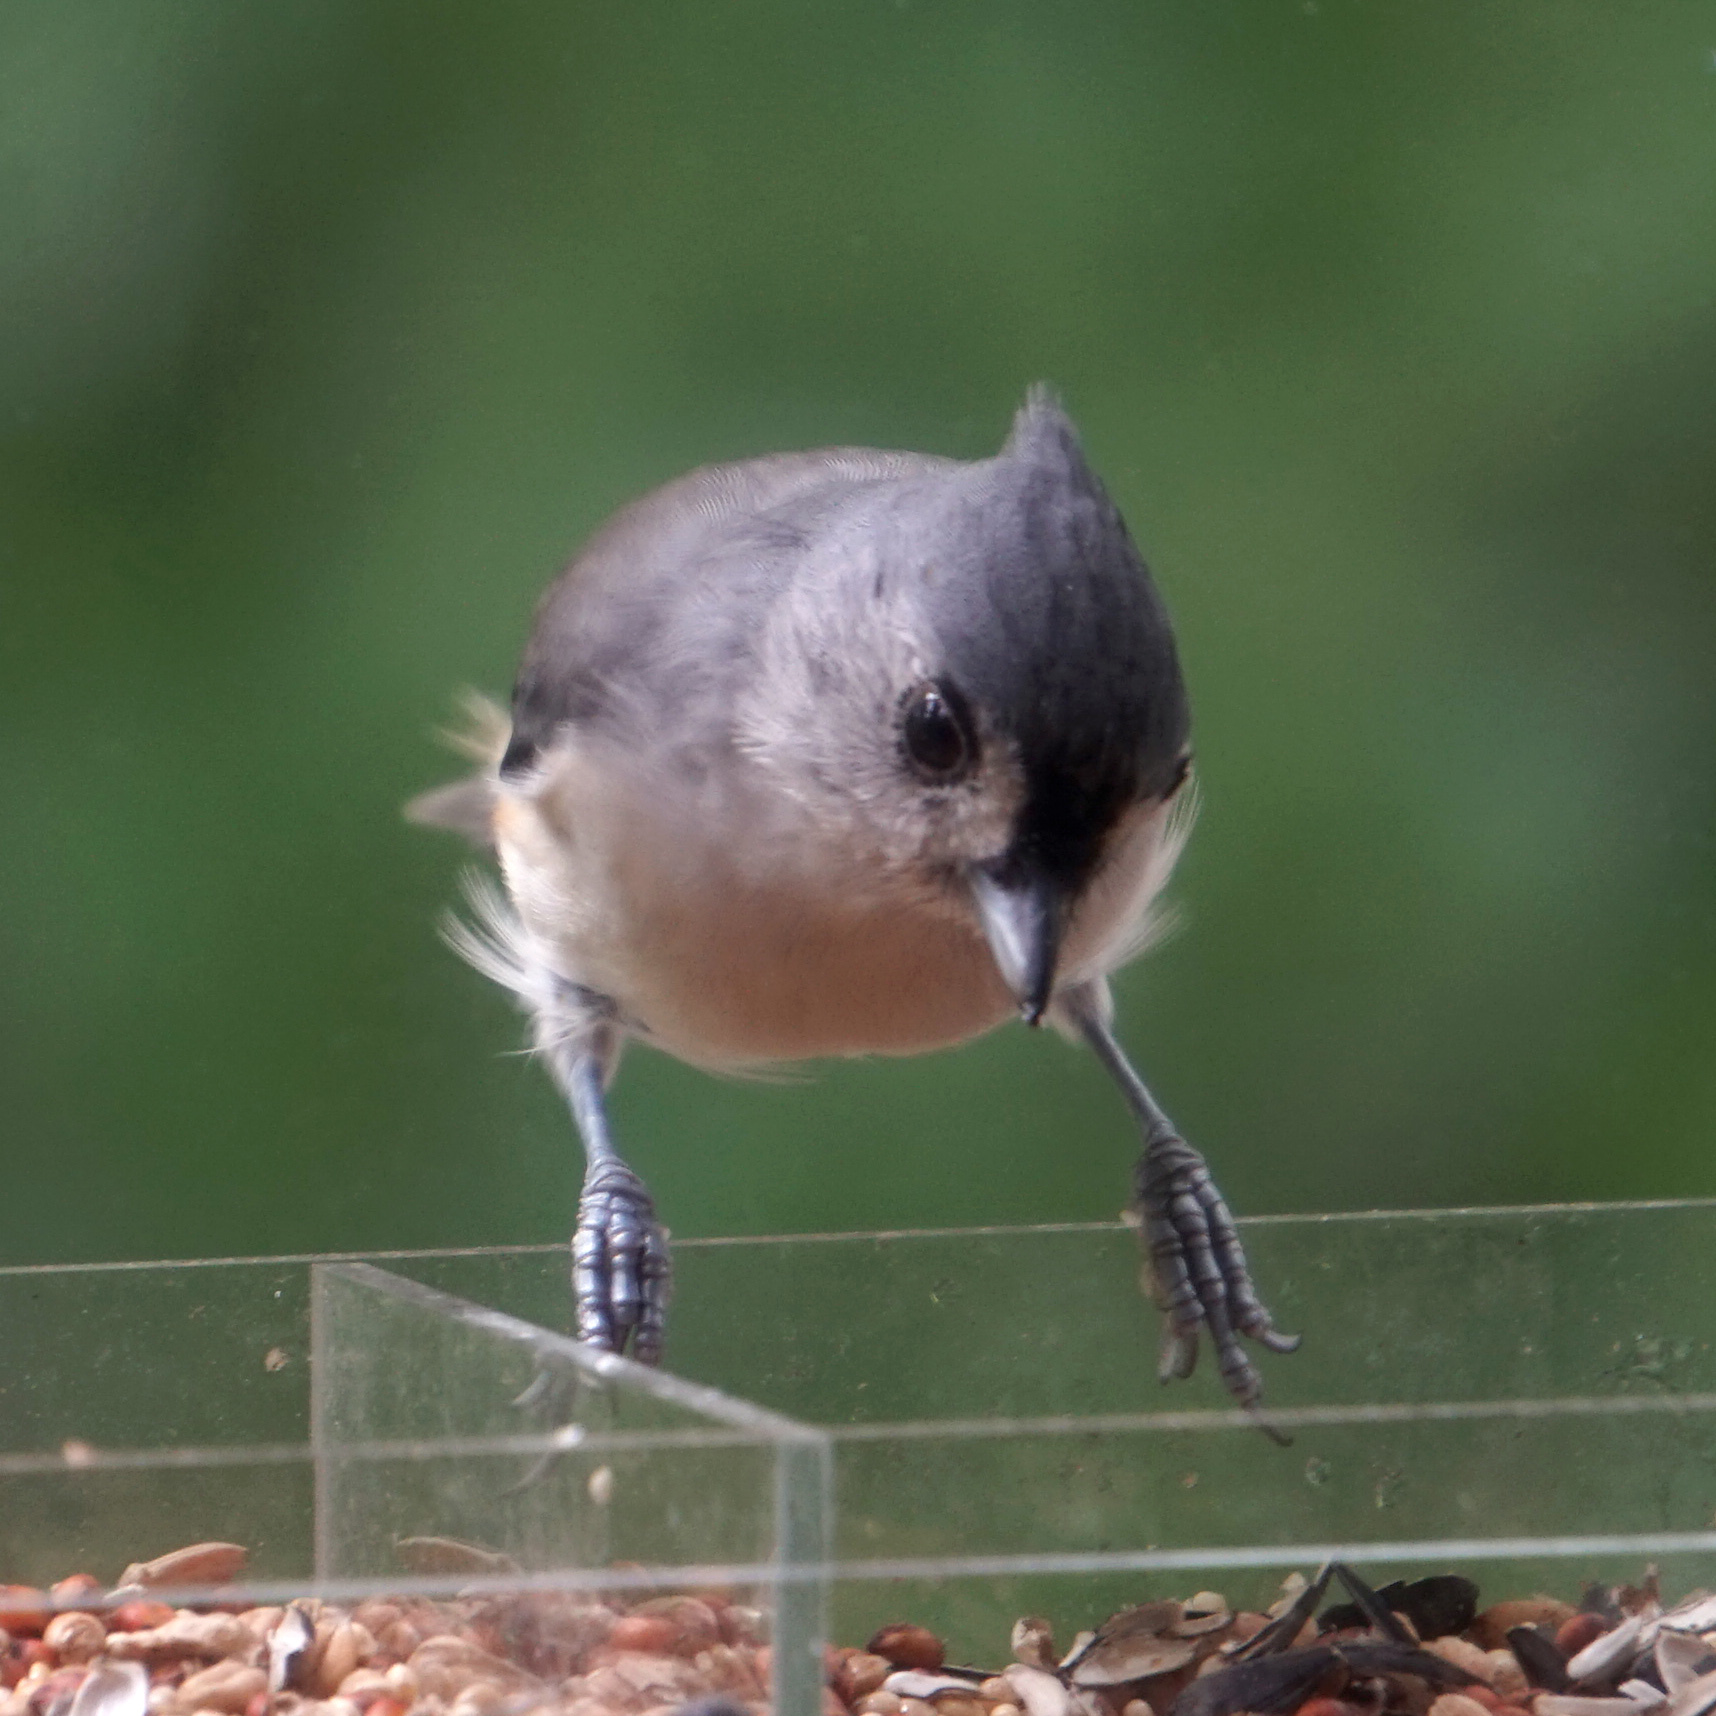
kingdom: Animalia
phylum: Chordata
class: Aves
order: Passeriformes
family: Paridae
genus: Baeolophus
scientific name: Baeolophus bicolor
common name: Tufted titmouse
